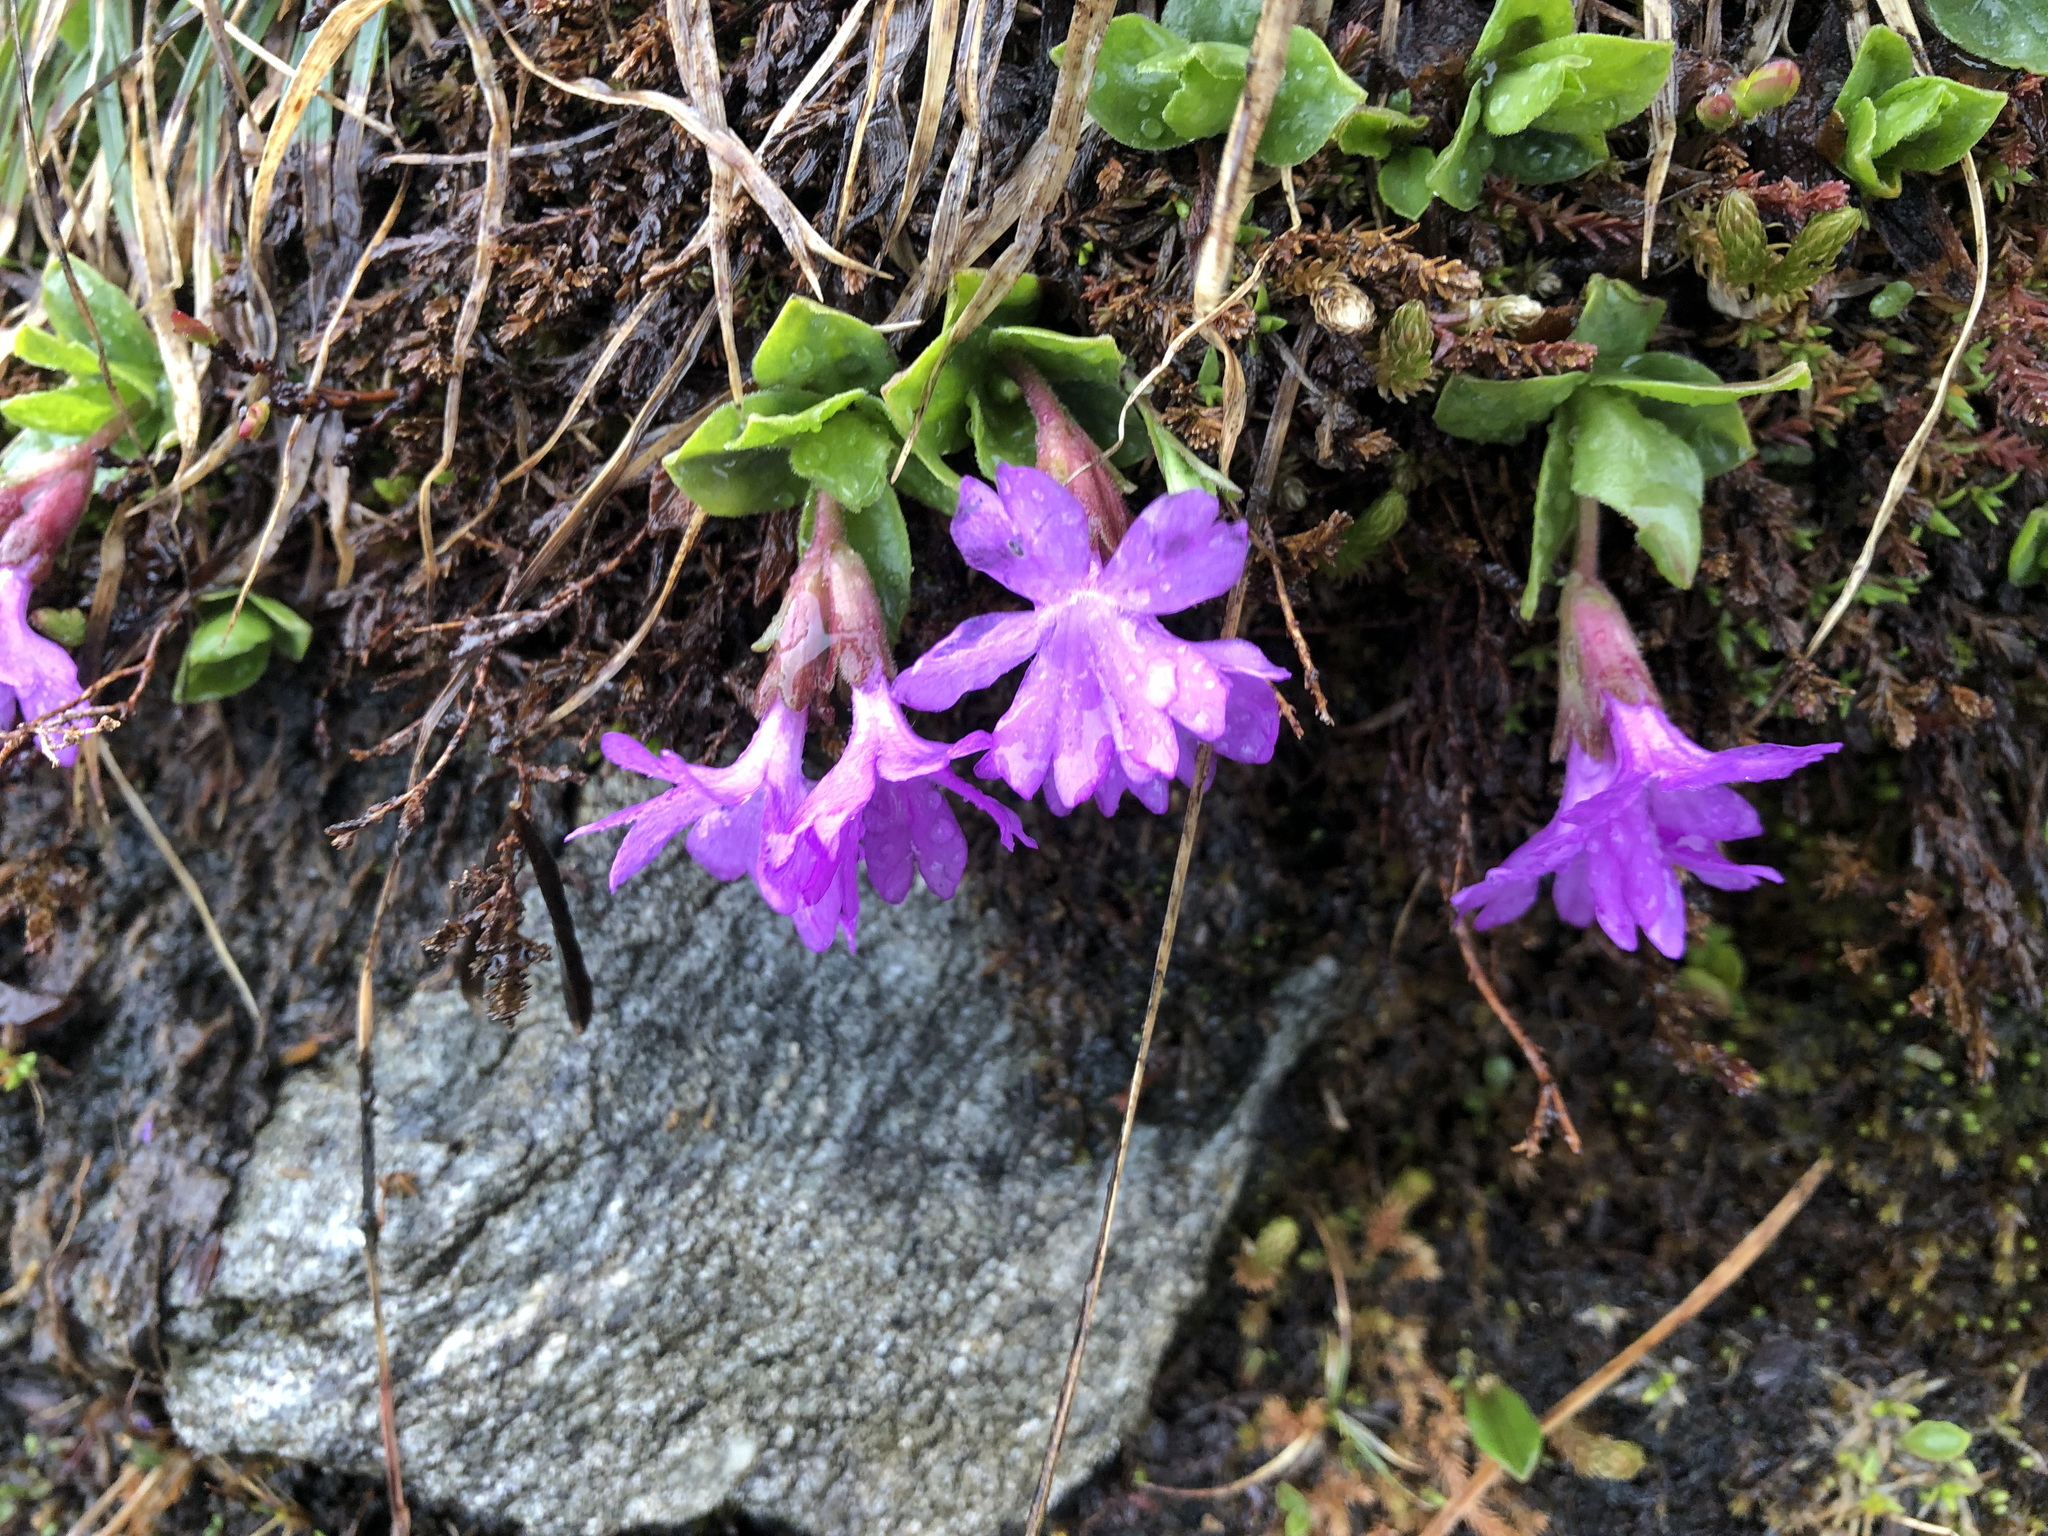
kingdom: Plantae
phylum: Tracheophyta
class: Magnoliopsida
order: Ericales
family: Primulaceae
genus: Primula
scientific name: Primula integrifolia
